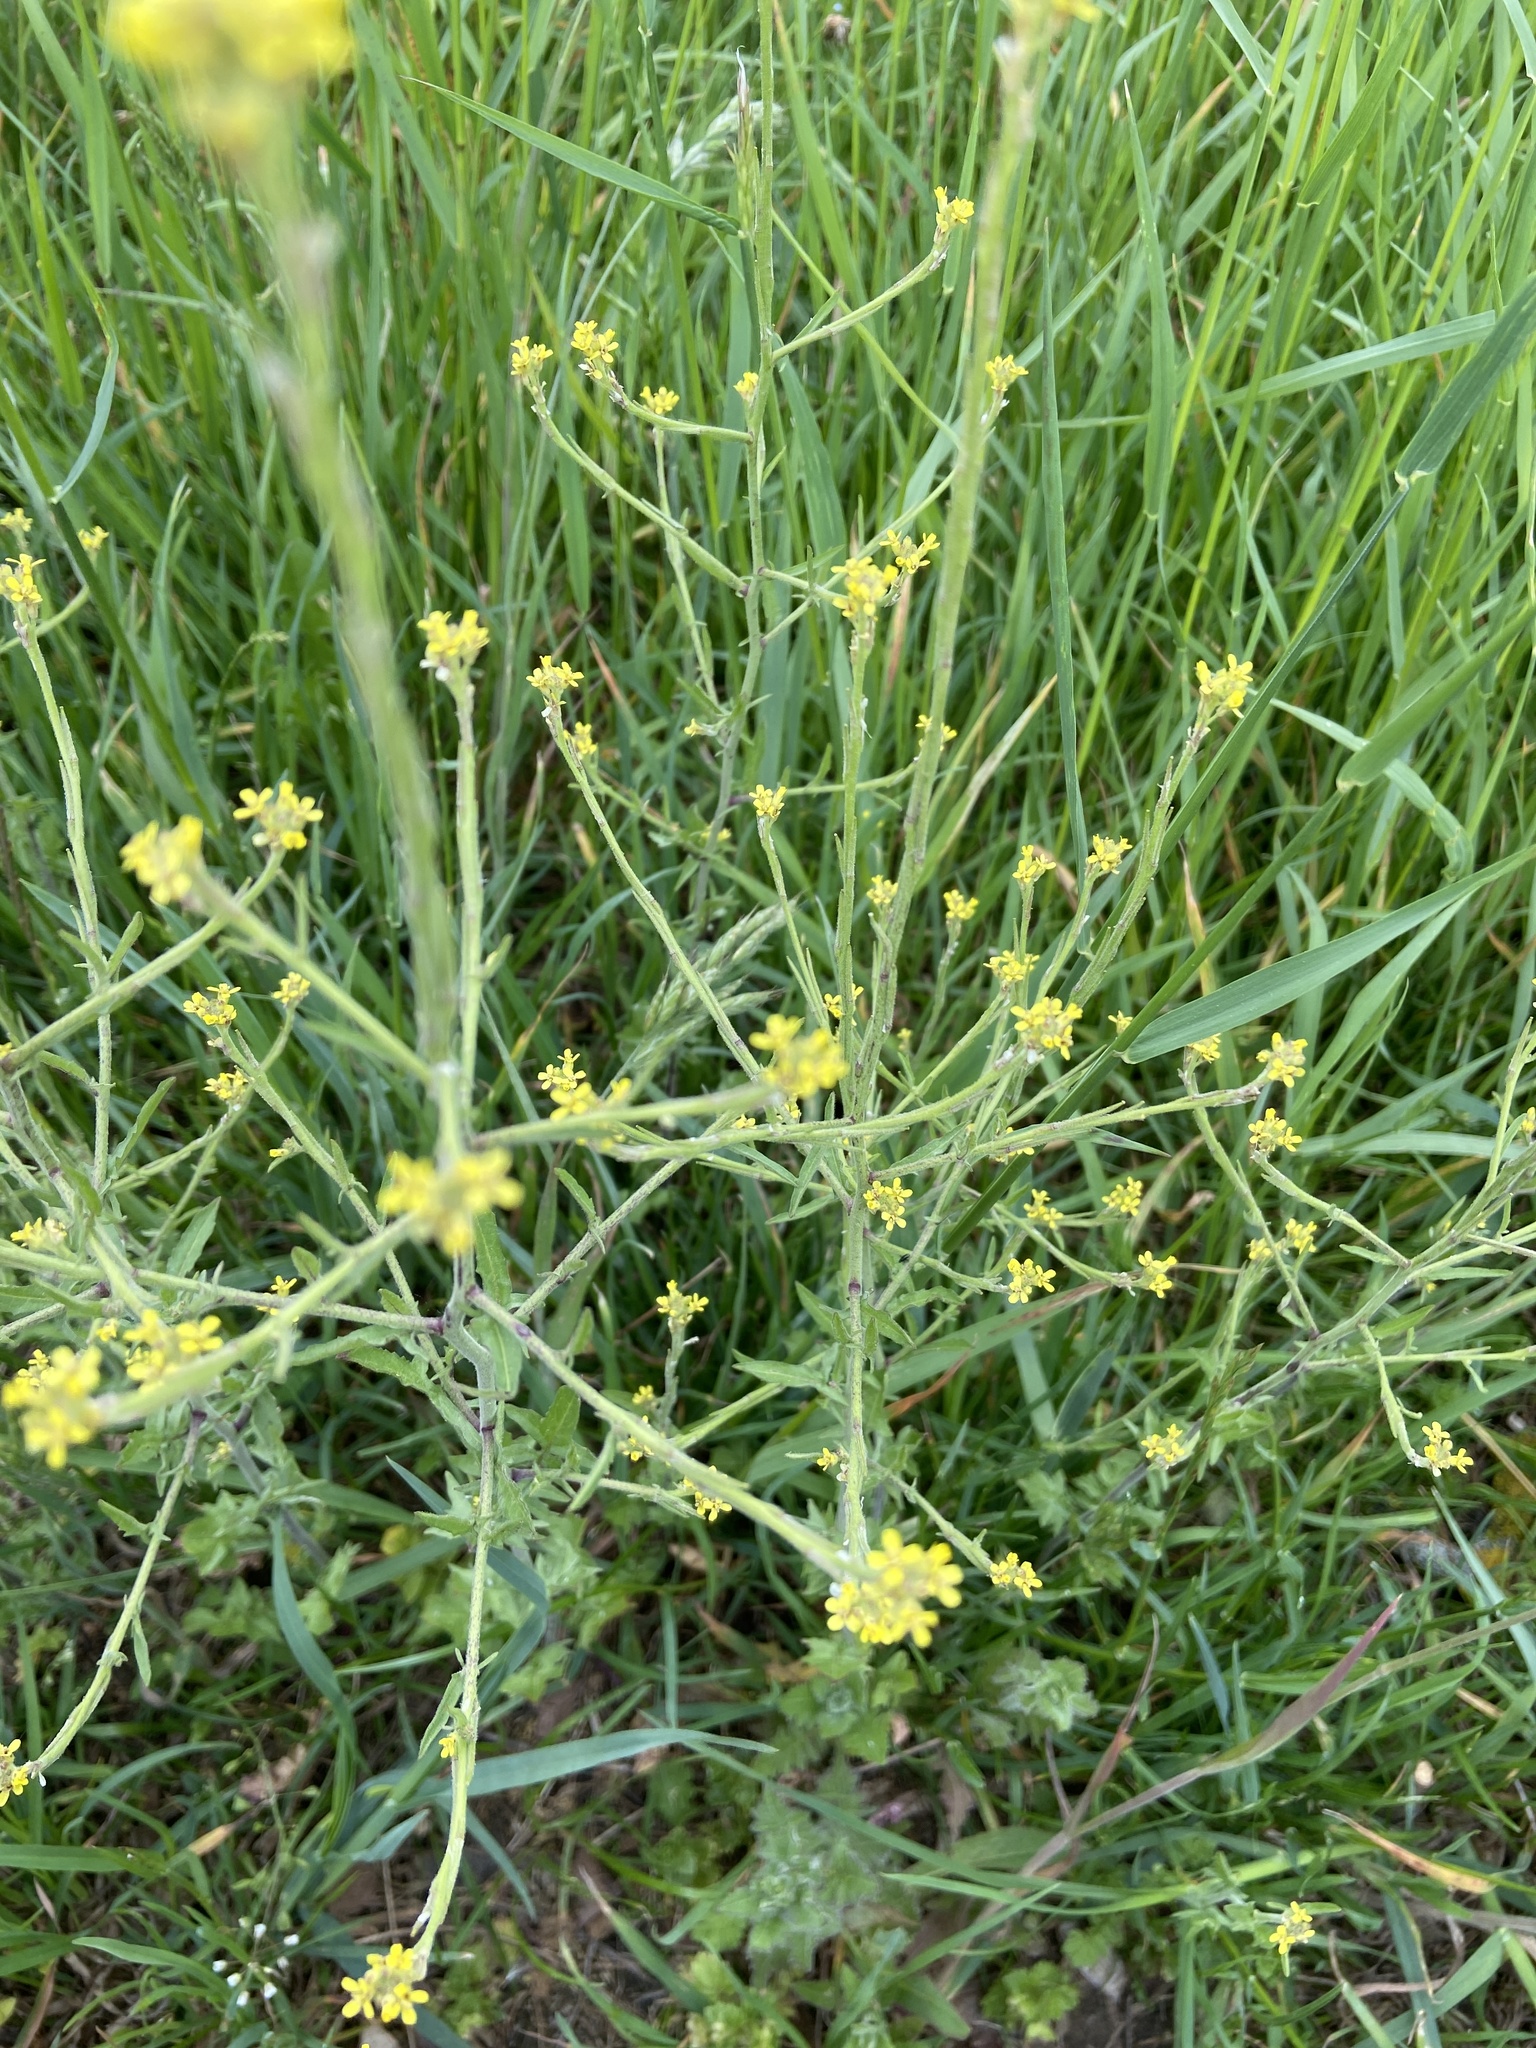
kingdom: Plantae
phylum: Tracheophyta
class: Magnoliopsida
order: Brassicales
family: Brassicaceae
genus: Sisymbrium
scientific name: Sisymbrium officinale
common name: Hedge mustard
